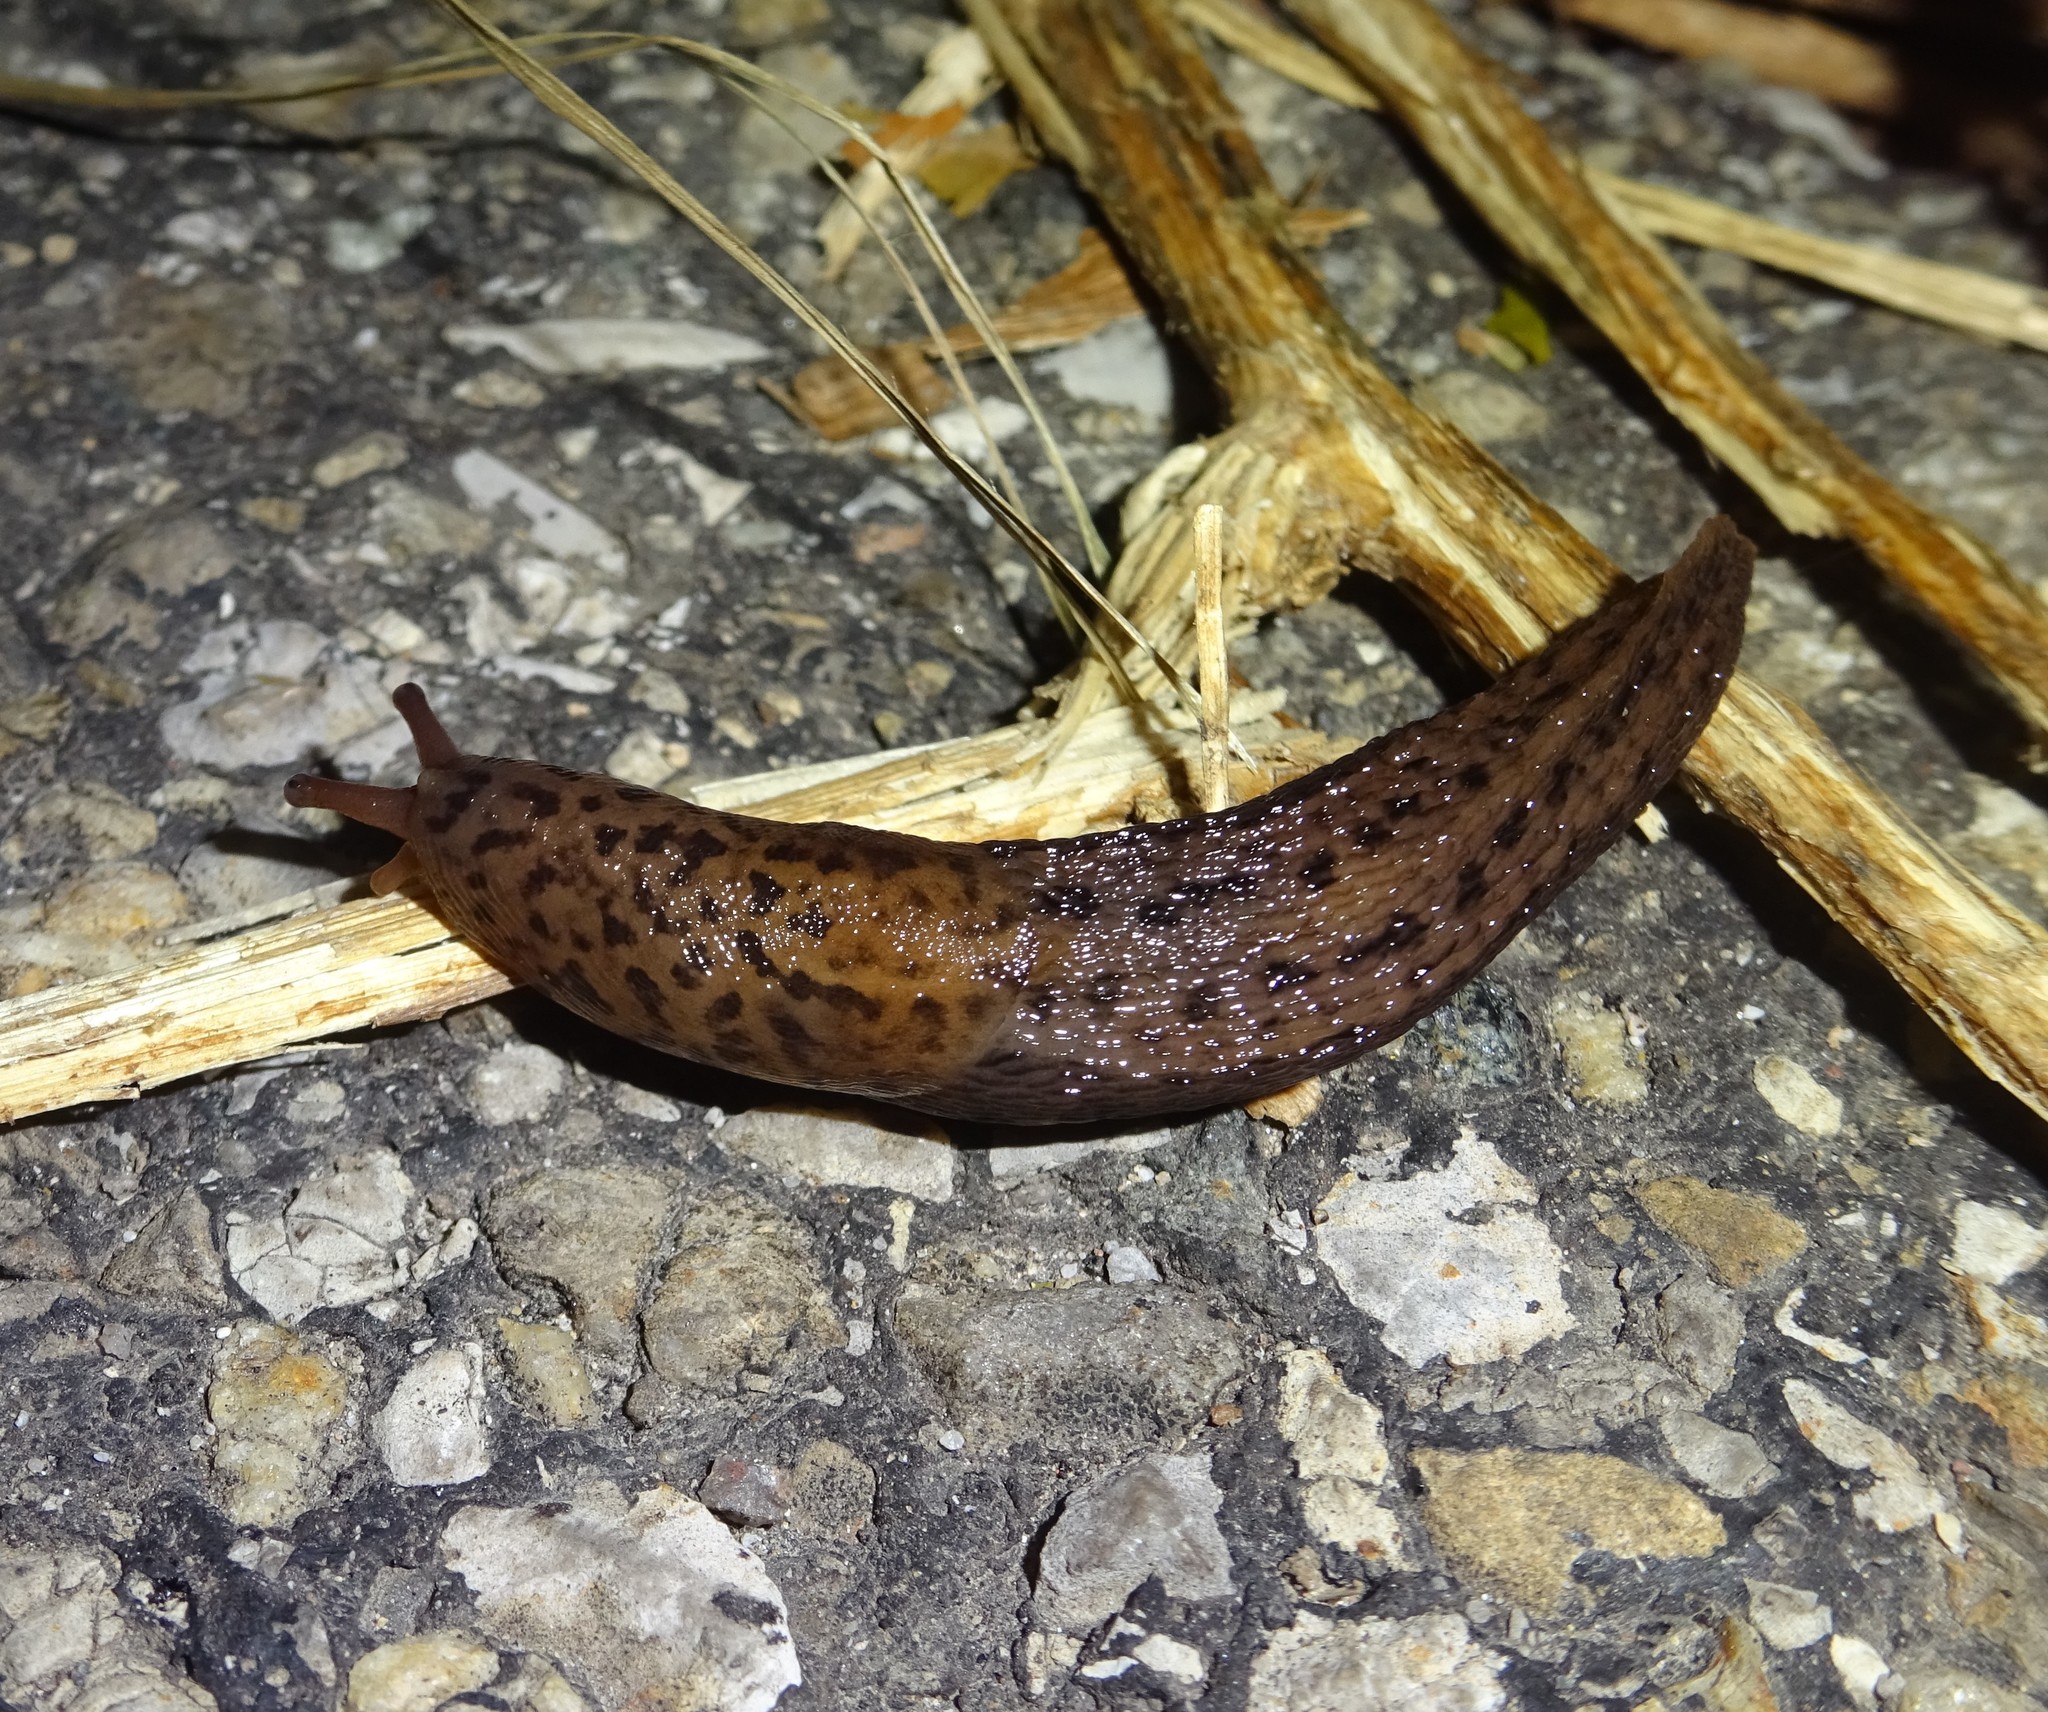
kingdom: Animalia
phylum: Mollusca
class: Gastropoda
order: Stylommatophora
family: Limacidae
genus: Limax
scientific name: Limax maximus
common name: Great grey slug
